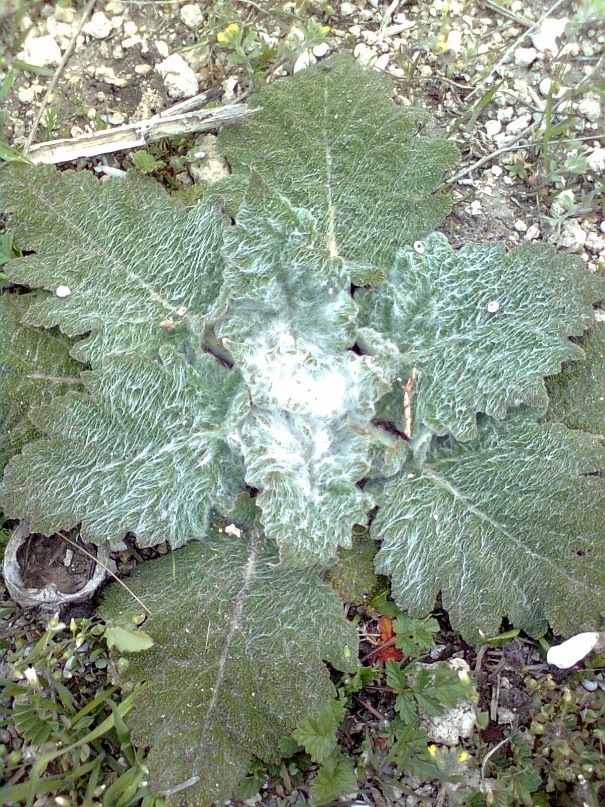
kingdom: Plantae
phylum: Tracheophyta
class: Magnoliopsida
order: Lamiales
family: Lamiaceae
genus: Salvia
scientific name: Salvia aethiopis
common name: Mediterranean sage
